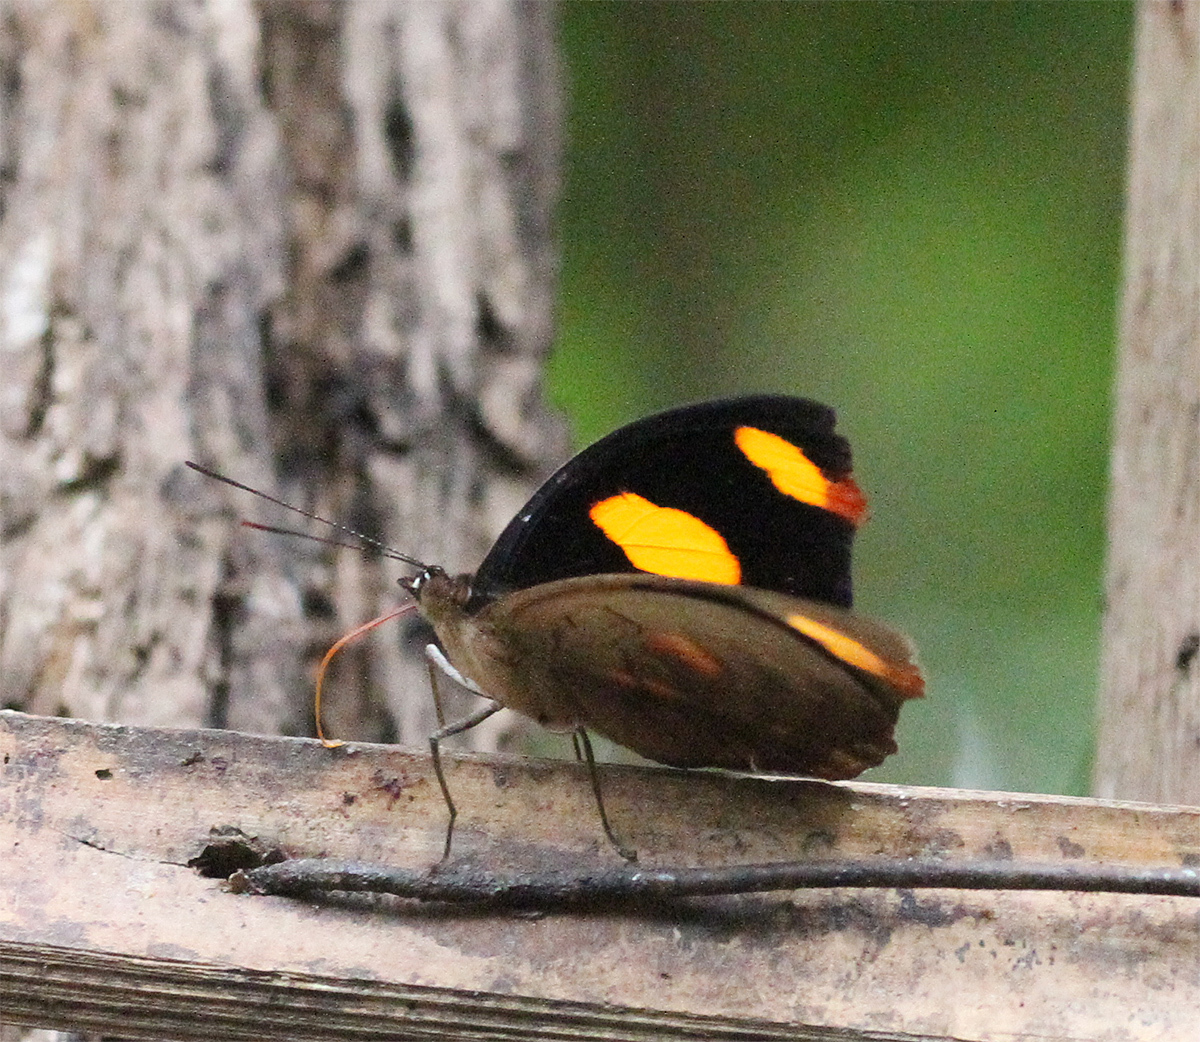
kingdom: Animalia
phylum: Arthropoda
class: Insecta
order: Lepidoptera
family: Nymphalidae
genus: Catonephele
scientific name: Catonephele numilia
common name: Blue-frosted banner
